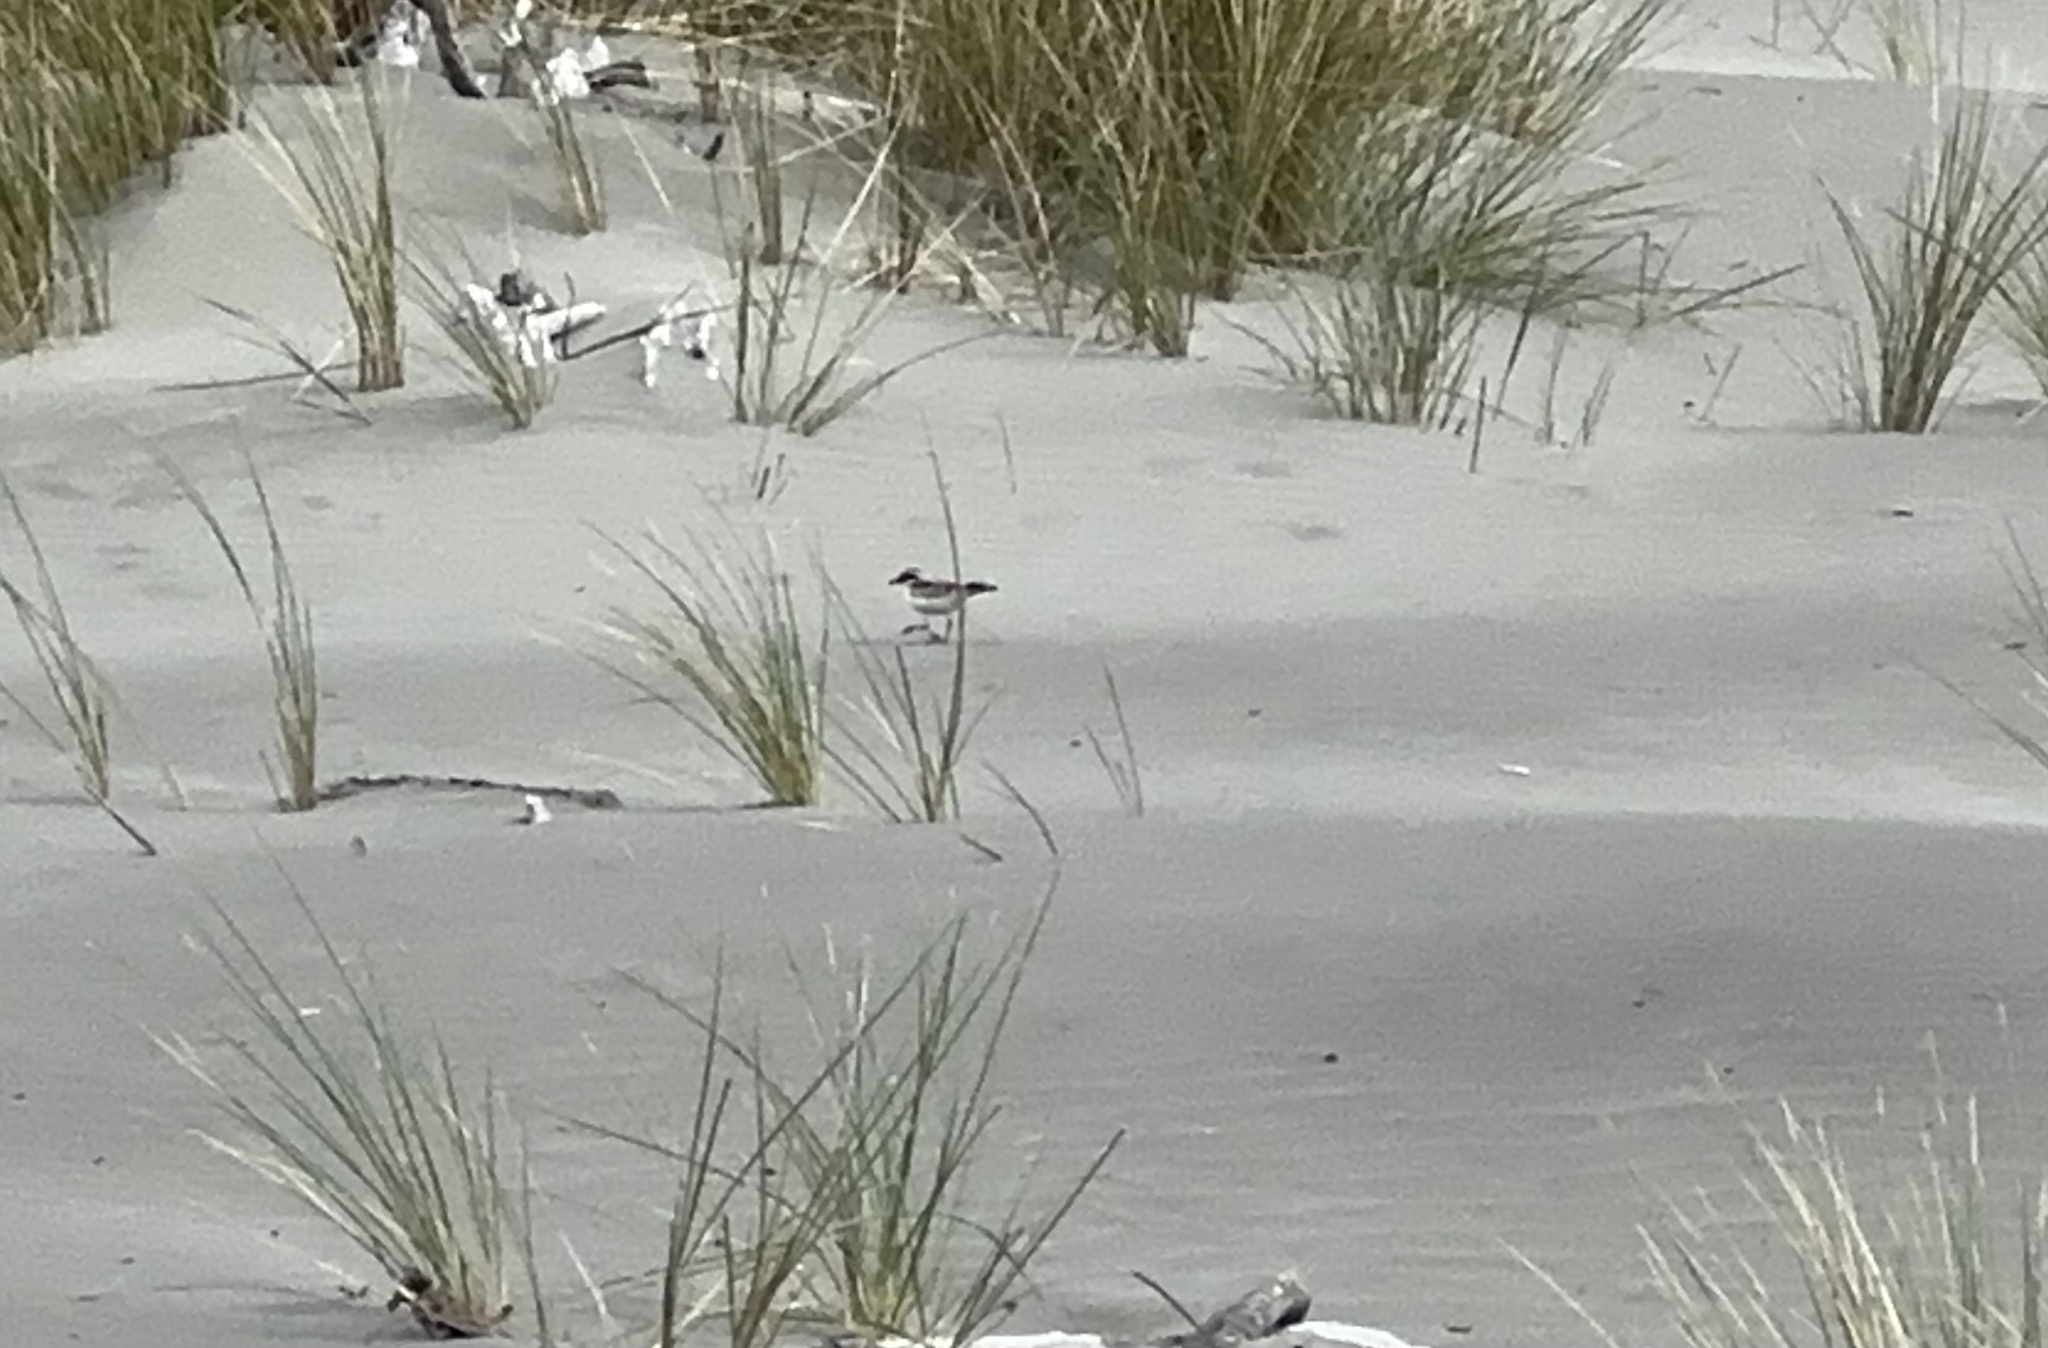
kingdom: Animalia
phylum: Chordata
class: Aves
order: Charadriiformes
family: Charadriidae
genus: Elseyornis
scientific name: Elseyornis melanops
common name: Black-fronted dotterel
